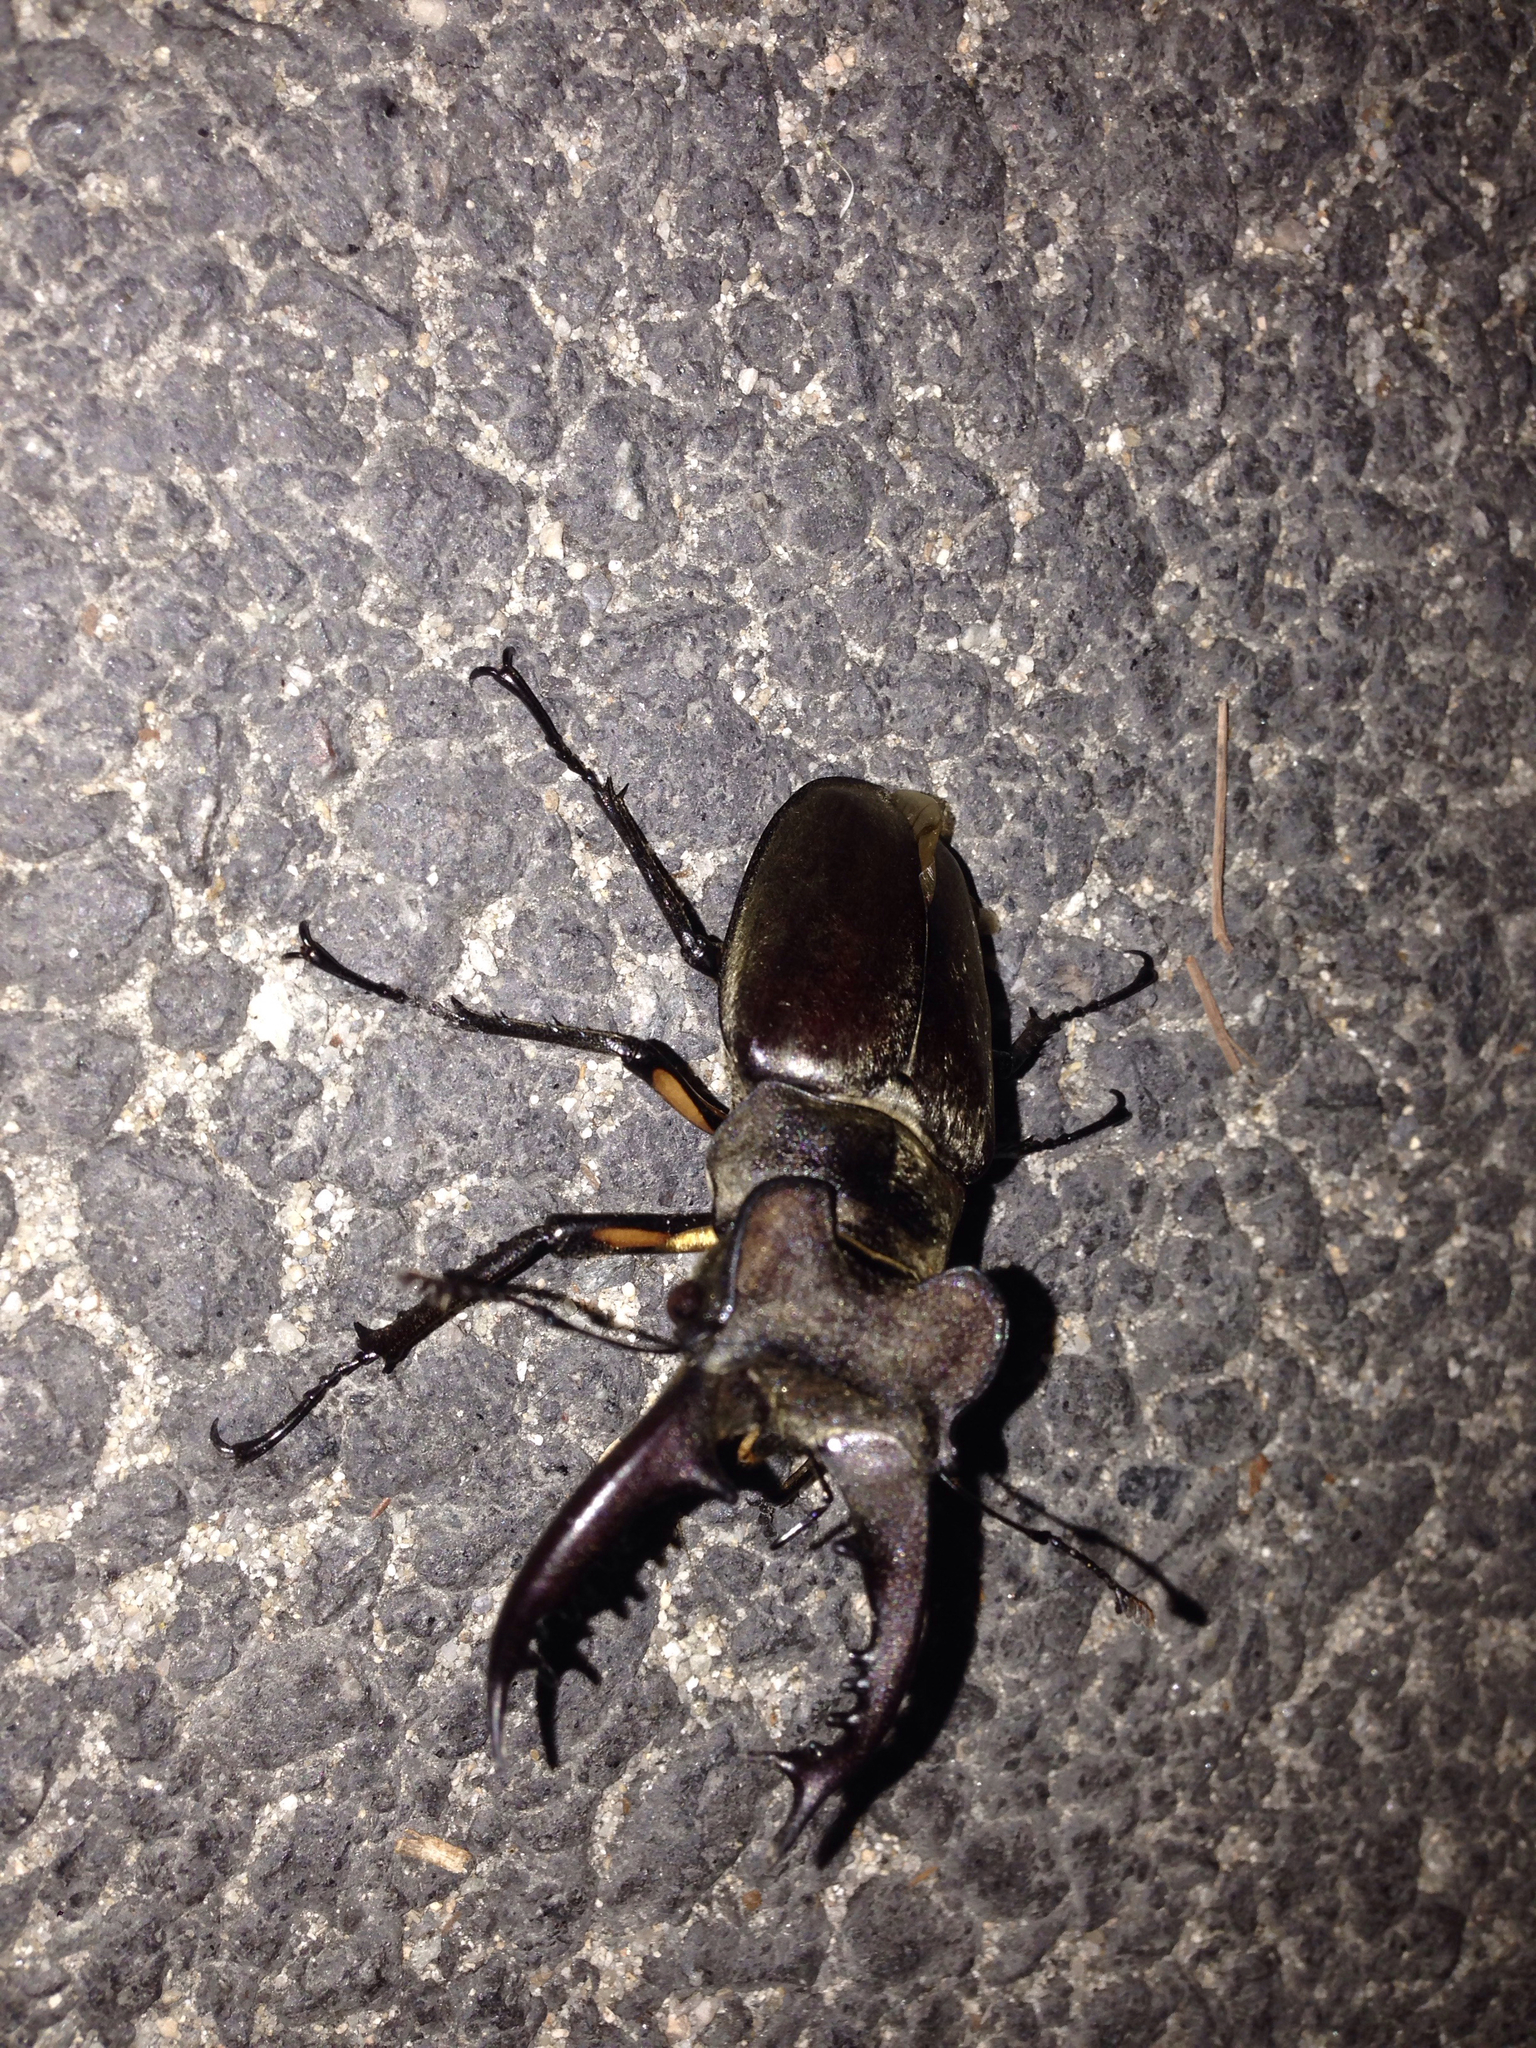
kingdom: Animalia
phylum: Arthropoda
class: Insecta
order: Coleoptera
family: Lucanidae
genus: Lucanus
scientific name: Lucanus maculifemoratus
